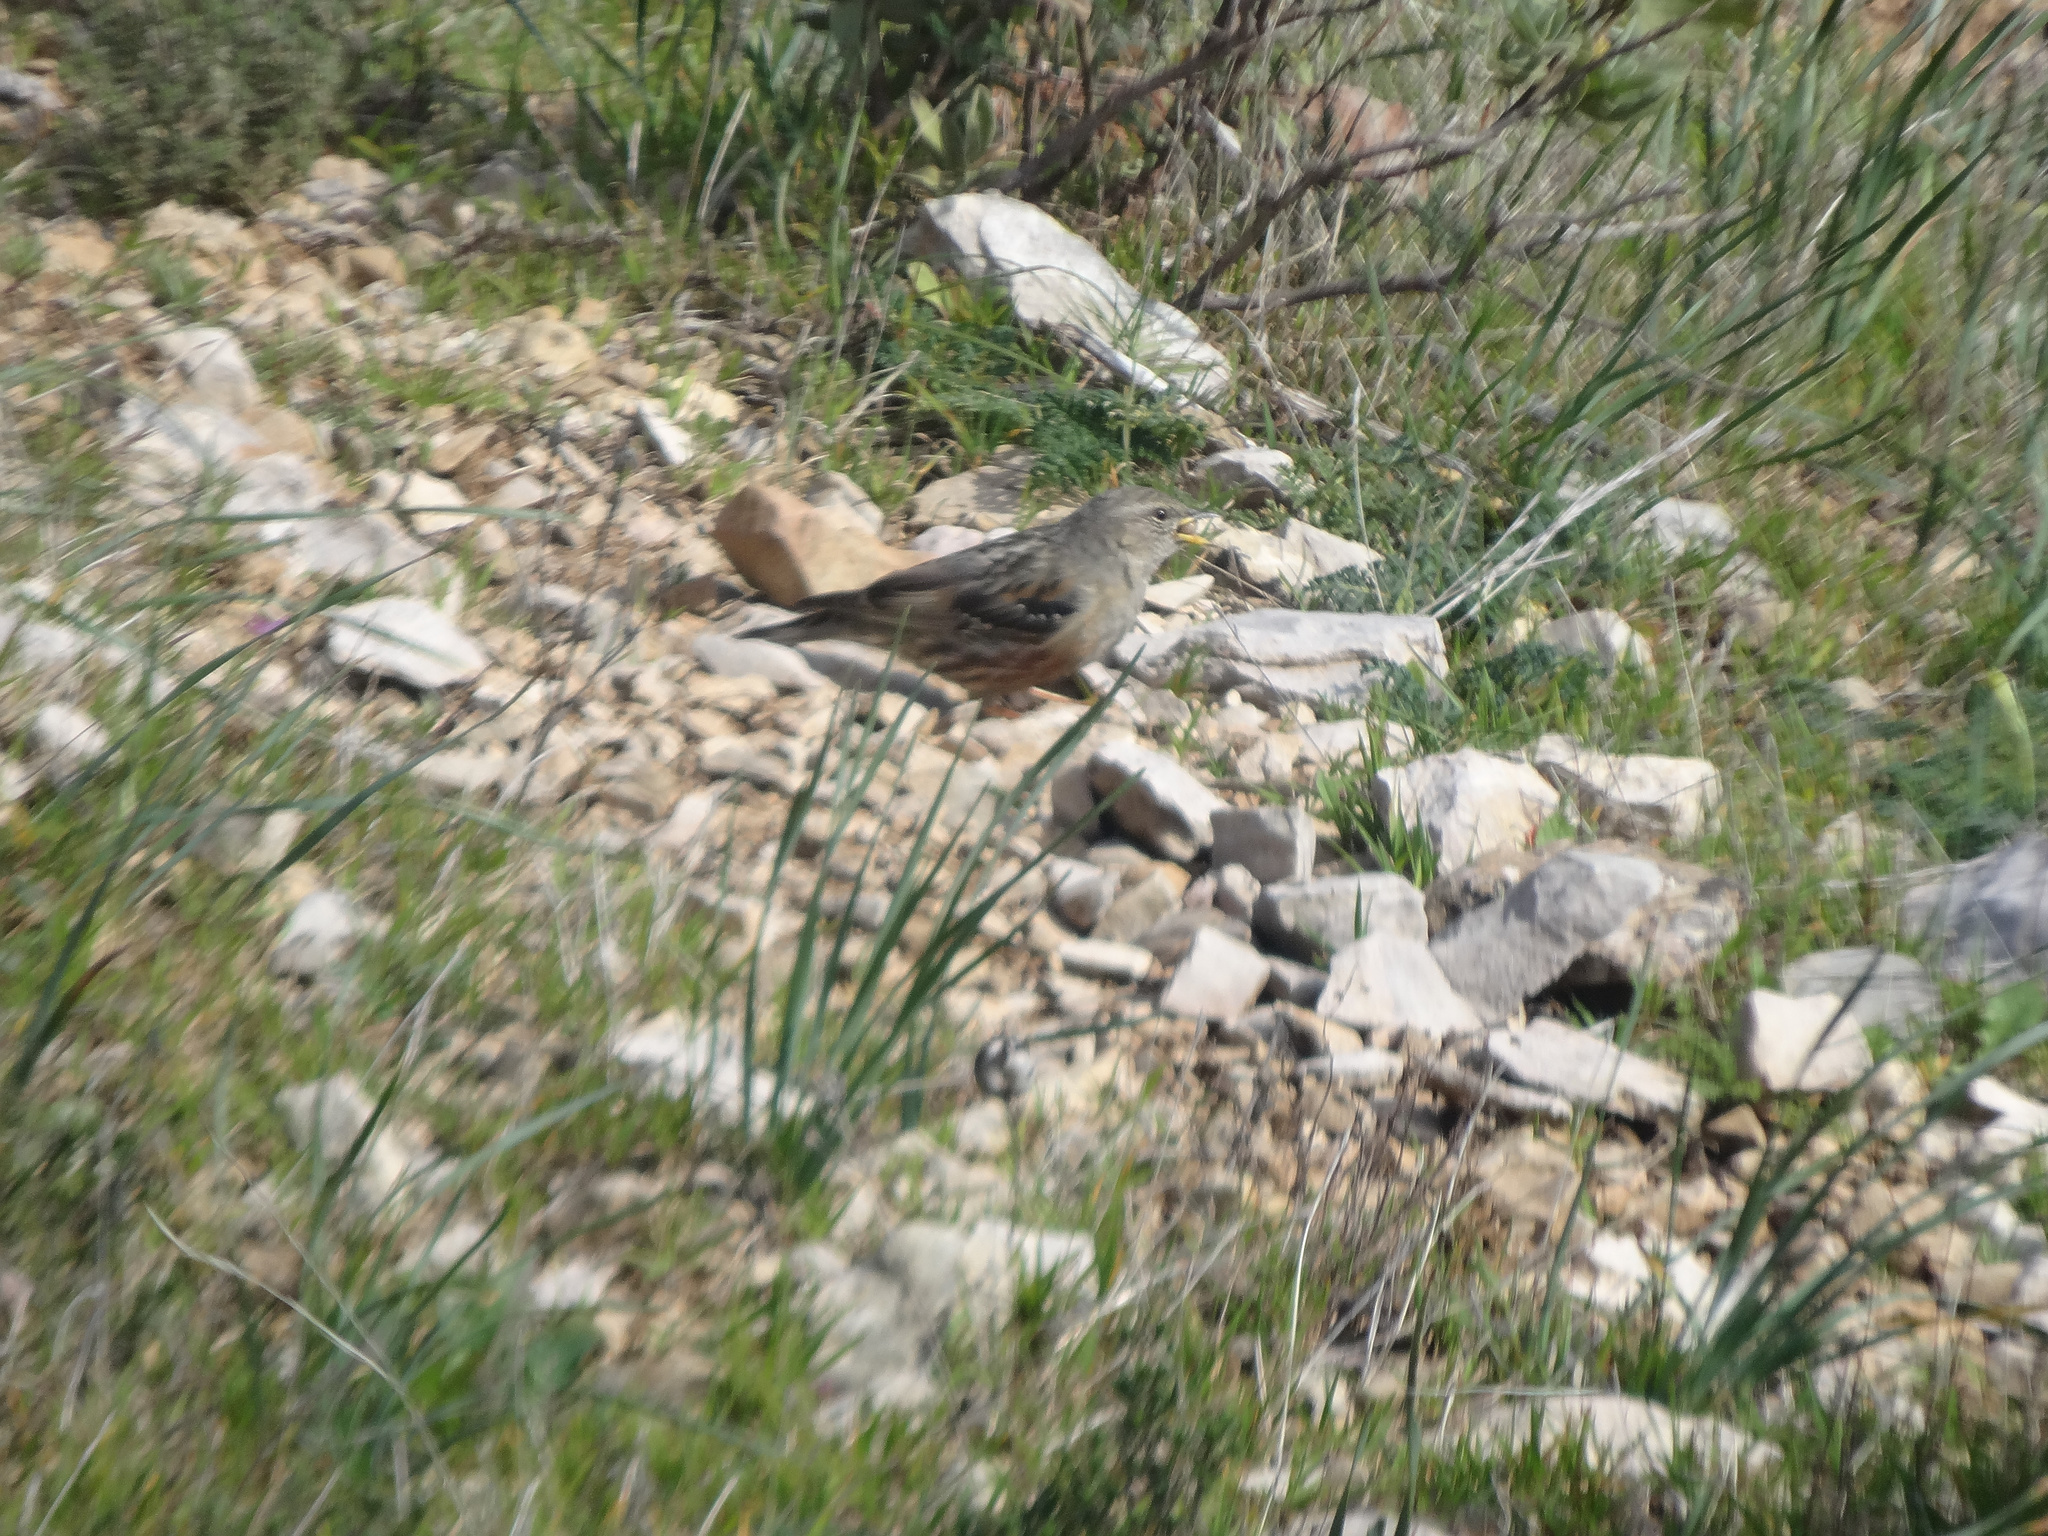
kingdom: Animalia
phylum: Chordata
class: Aves
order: Passeriformes
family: Prunellidae
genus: Prunella
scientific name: Prunella collaris
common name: Alpine accentor
